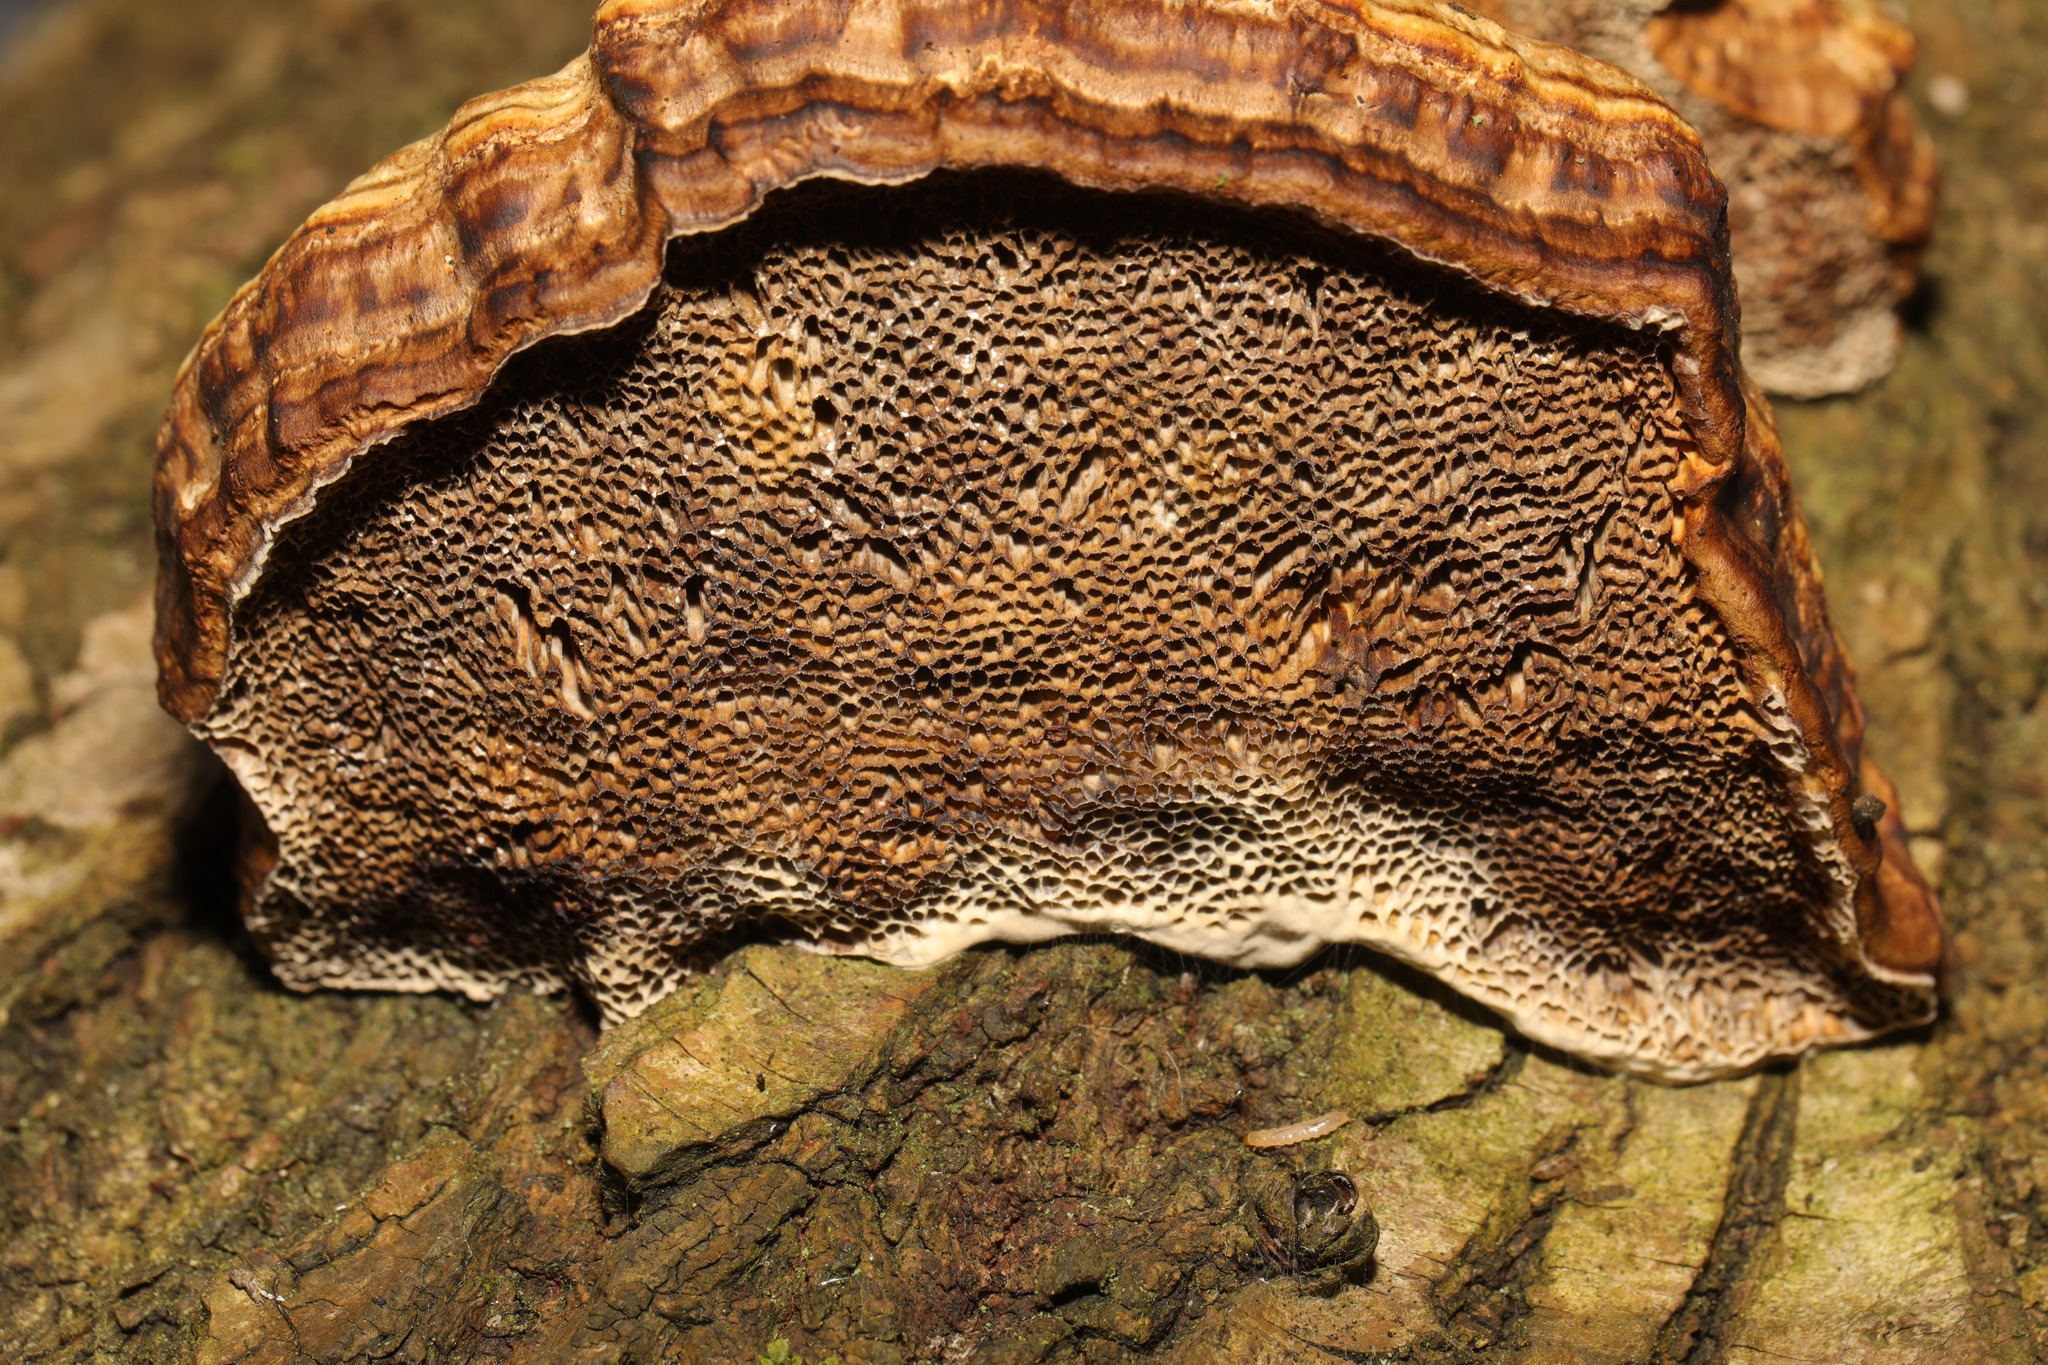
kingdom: Fungi
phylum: Basidiomycota
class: Agaricomycetes
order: Polyporales
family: Polyporaceae
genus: Daedaleopsis
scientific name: Daedaleopsis confragosa
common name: Blushing bracket
